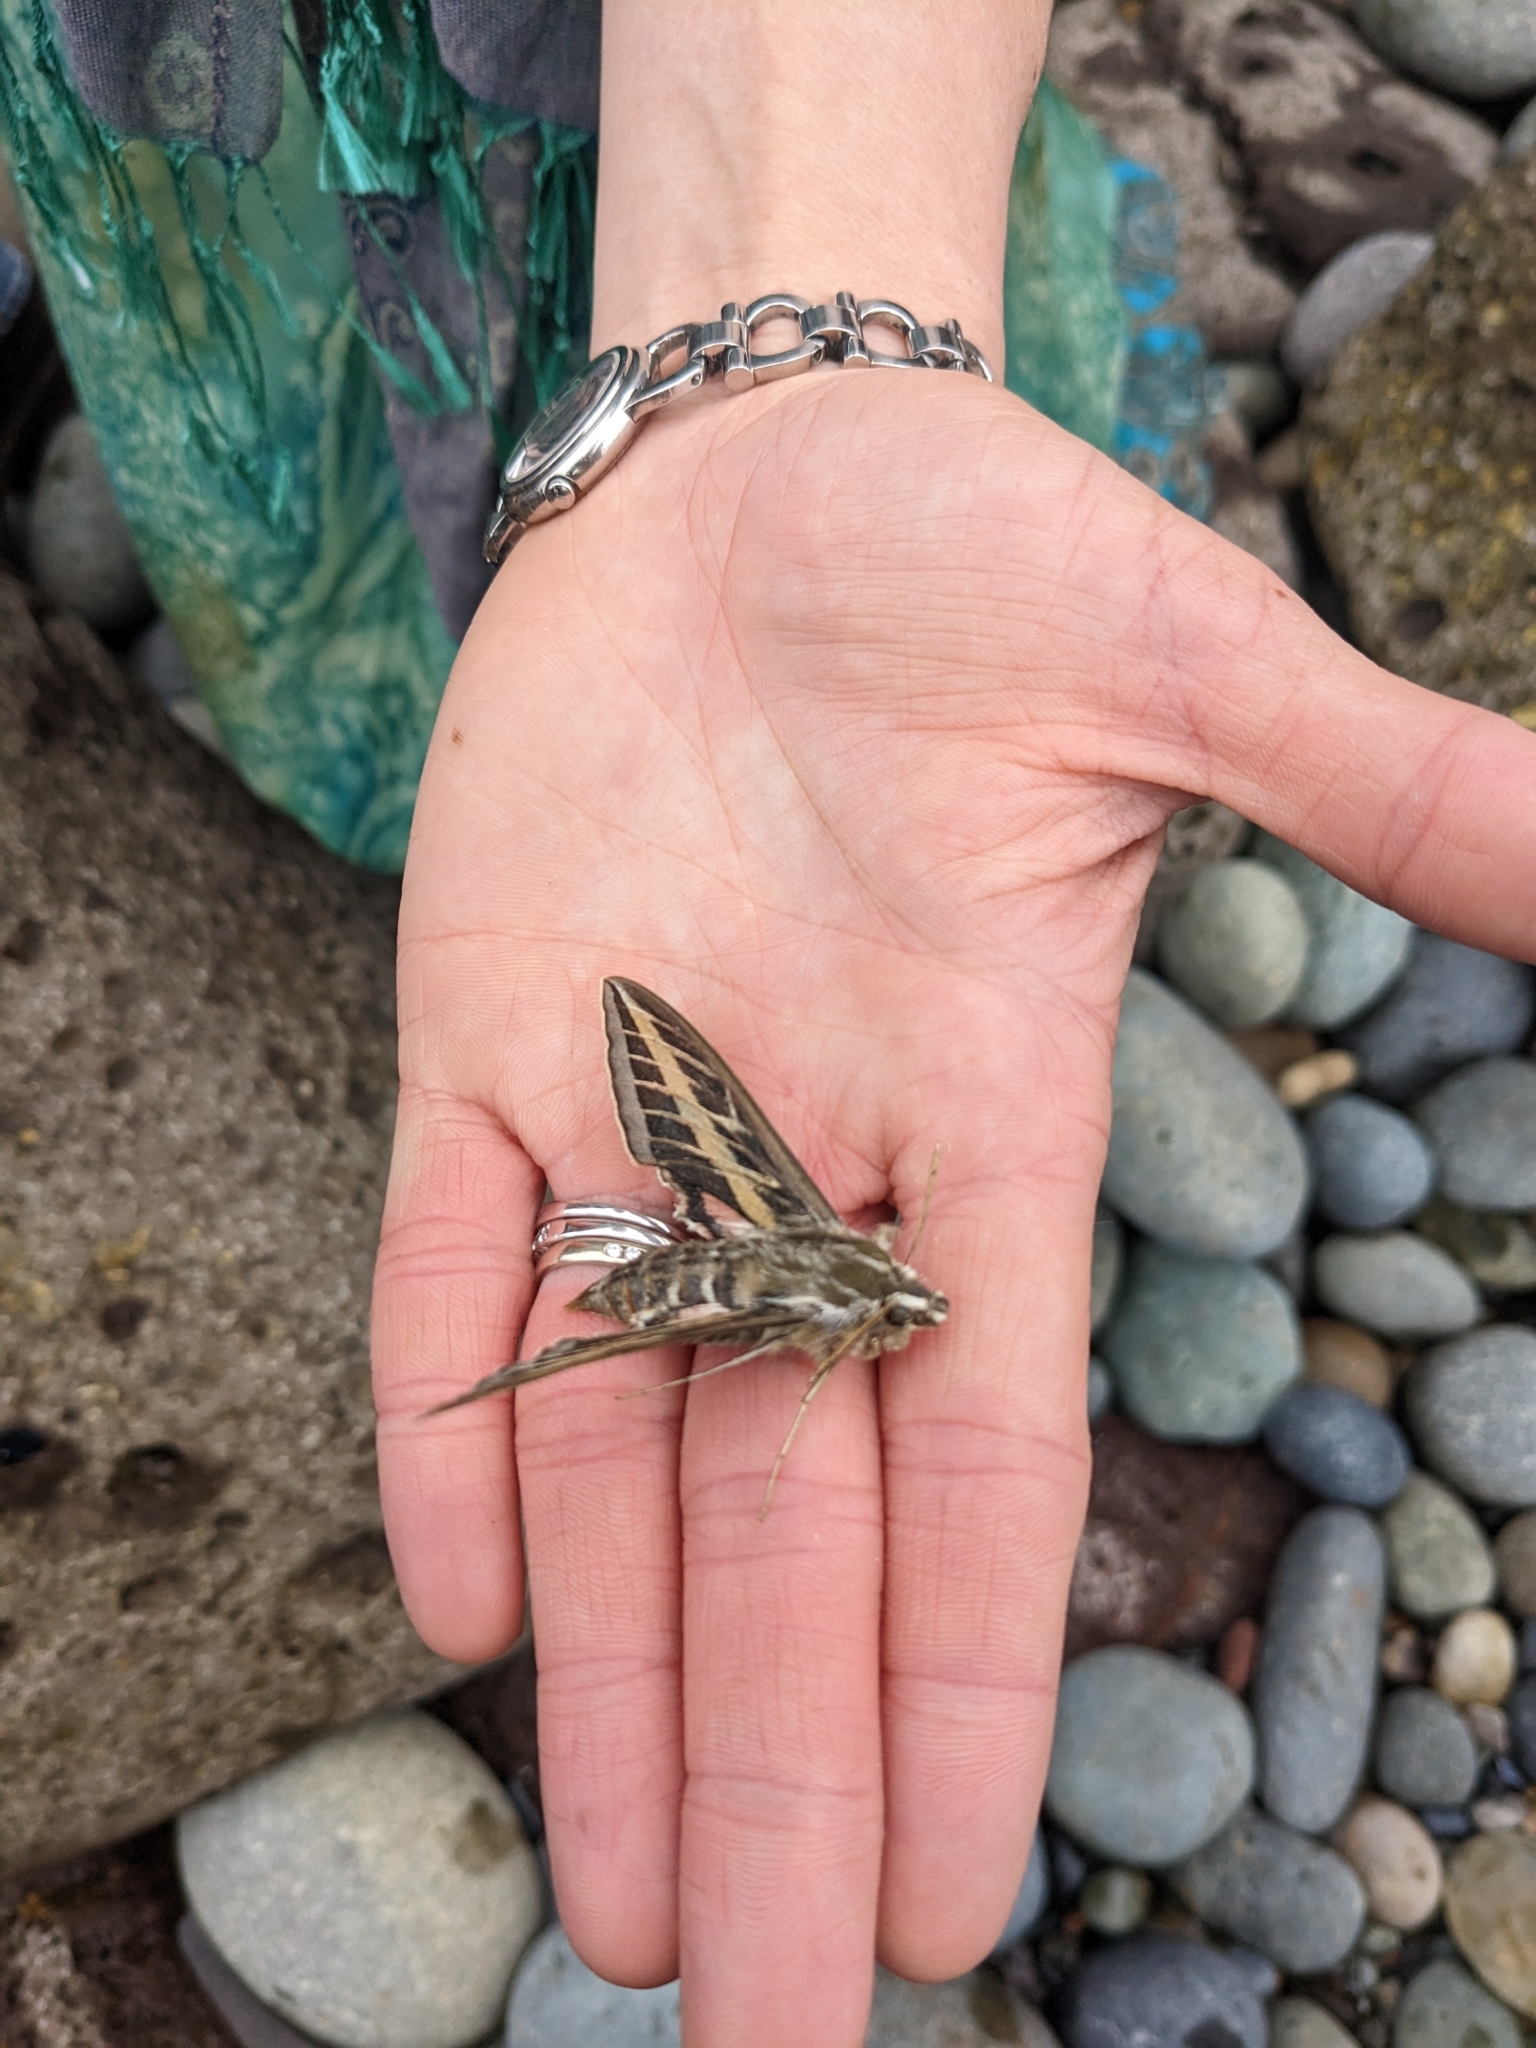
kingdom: Animalia
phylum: Arthropoda
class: Insecta
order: Lepidoptera
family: Sphingidae
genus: Hyles
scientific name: Hyles lineata
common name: White-lined sphinx
